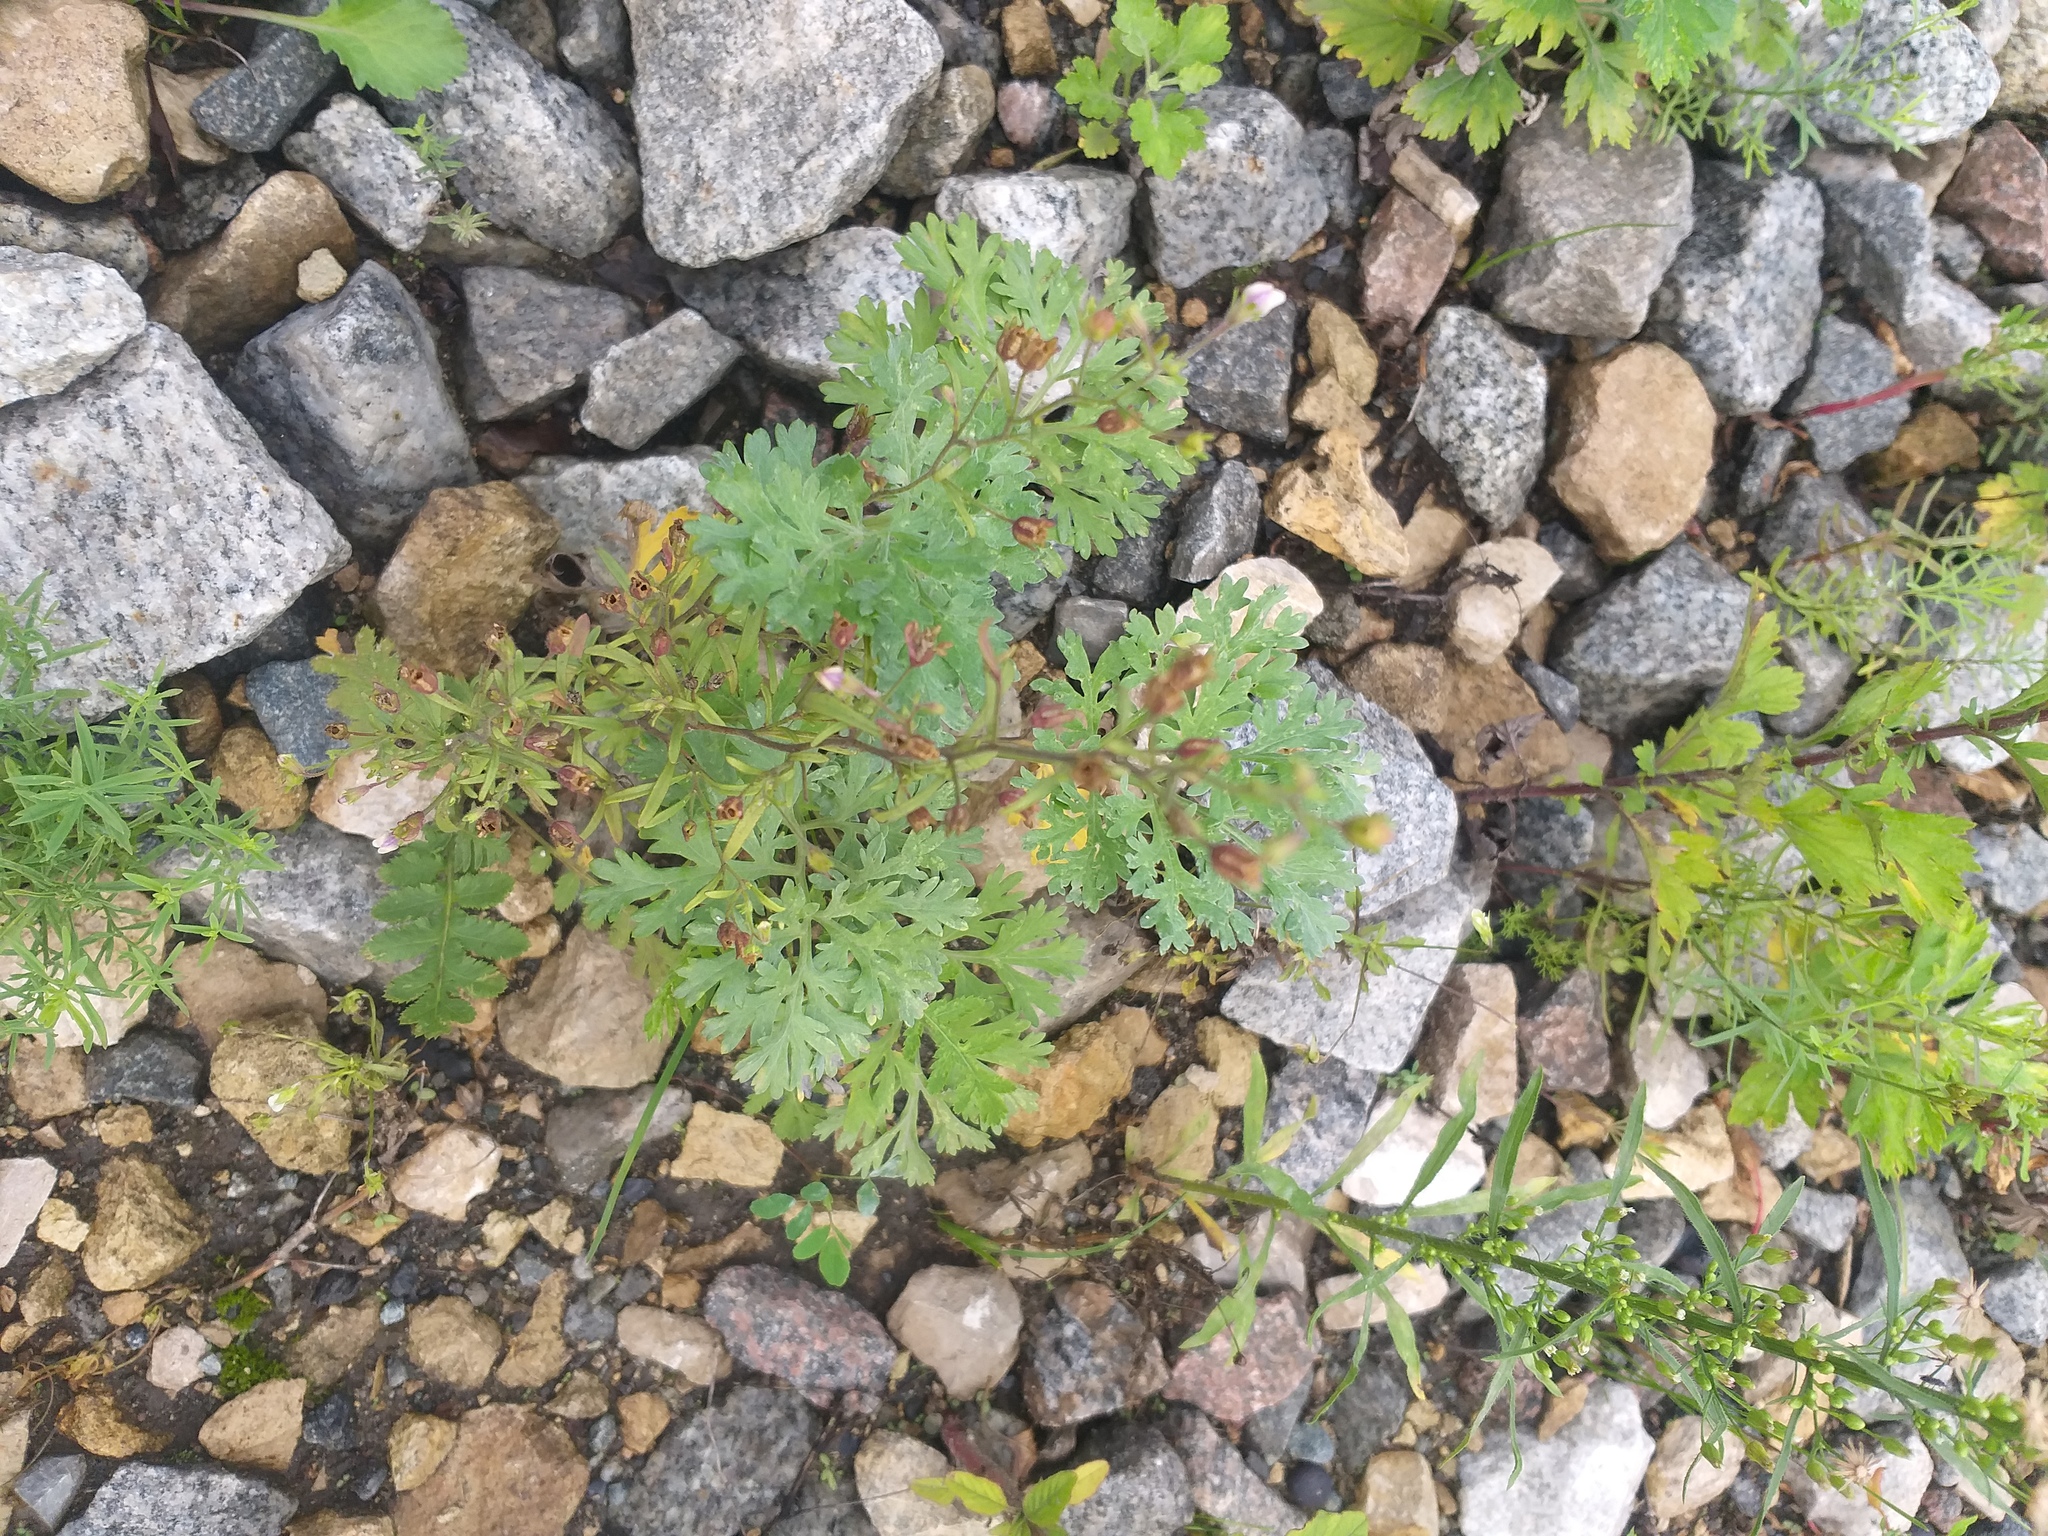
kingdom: Plantae
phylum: Tracheophyta
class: Magnoliopsida
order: Lamiales
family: Plantaginaceae
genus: Chaenorhinum
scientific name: Chaenorhinum minus
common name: Dwarf snapdragon
